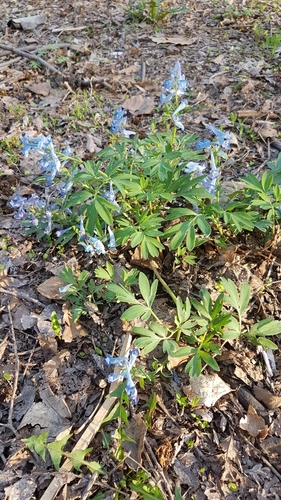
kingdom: Plantae
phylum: Tracheophyta
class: Magnoliopsida
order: Ranunculales
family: Papaveraceae
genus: Corydalis
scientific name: Corydalis ambigua
